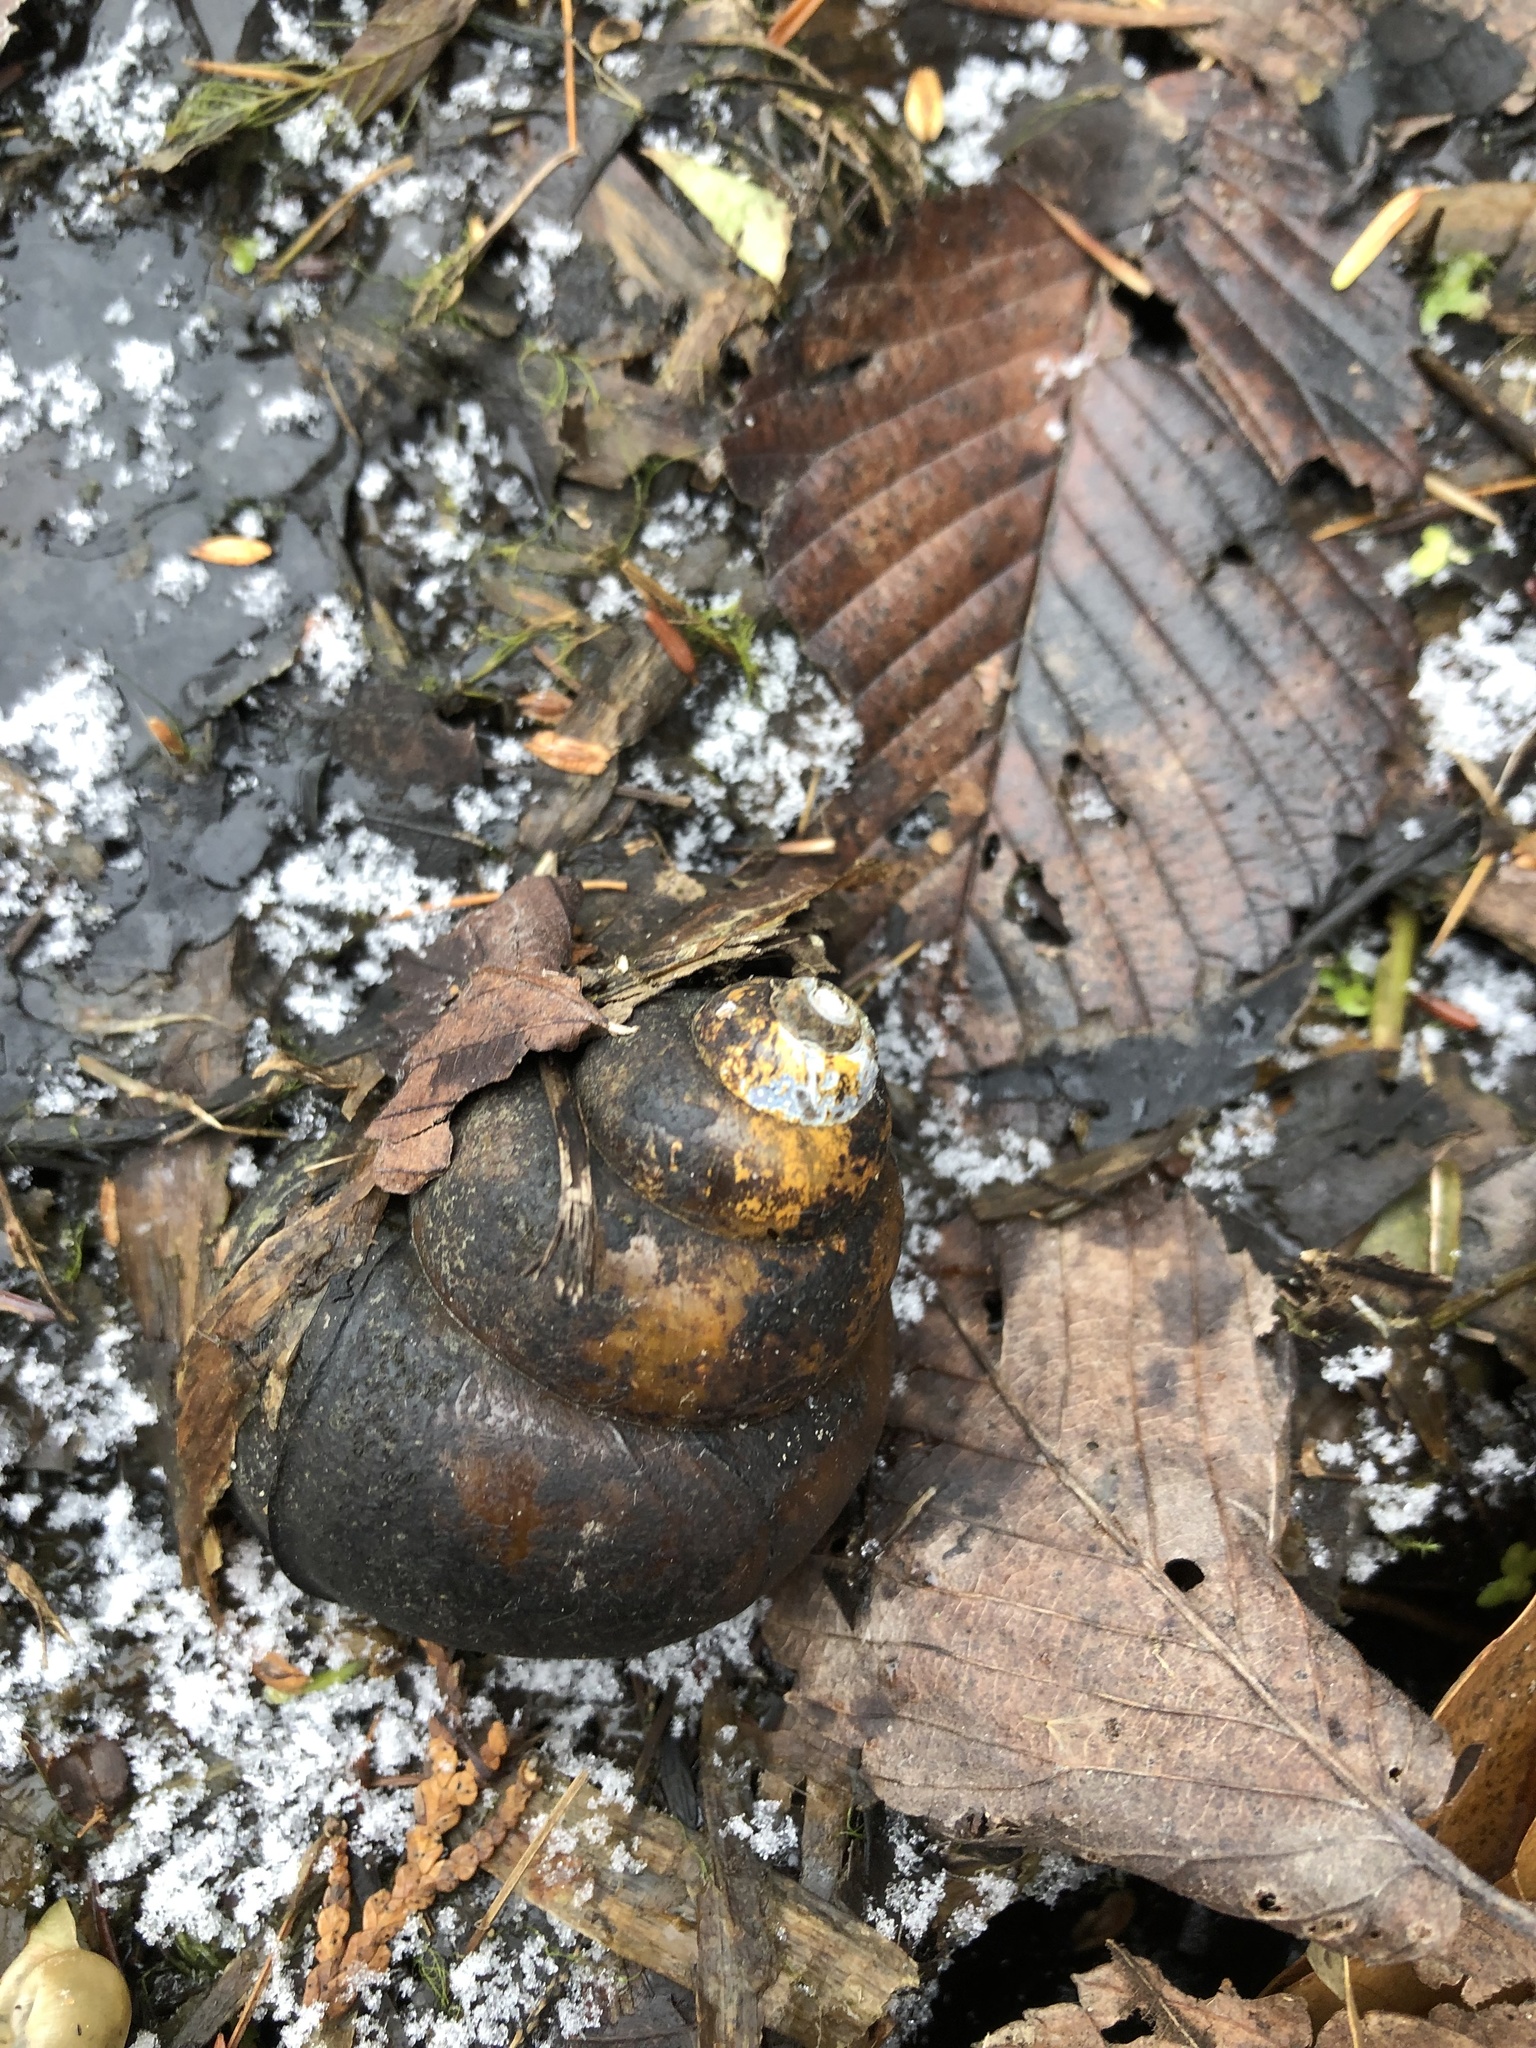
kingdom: Animalia
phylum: Mollusca
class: Gastropoda
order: Architaenioglossa
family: Viviparidae
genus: Cipangopaludina
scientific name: Cipangopaludina chinensis
